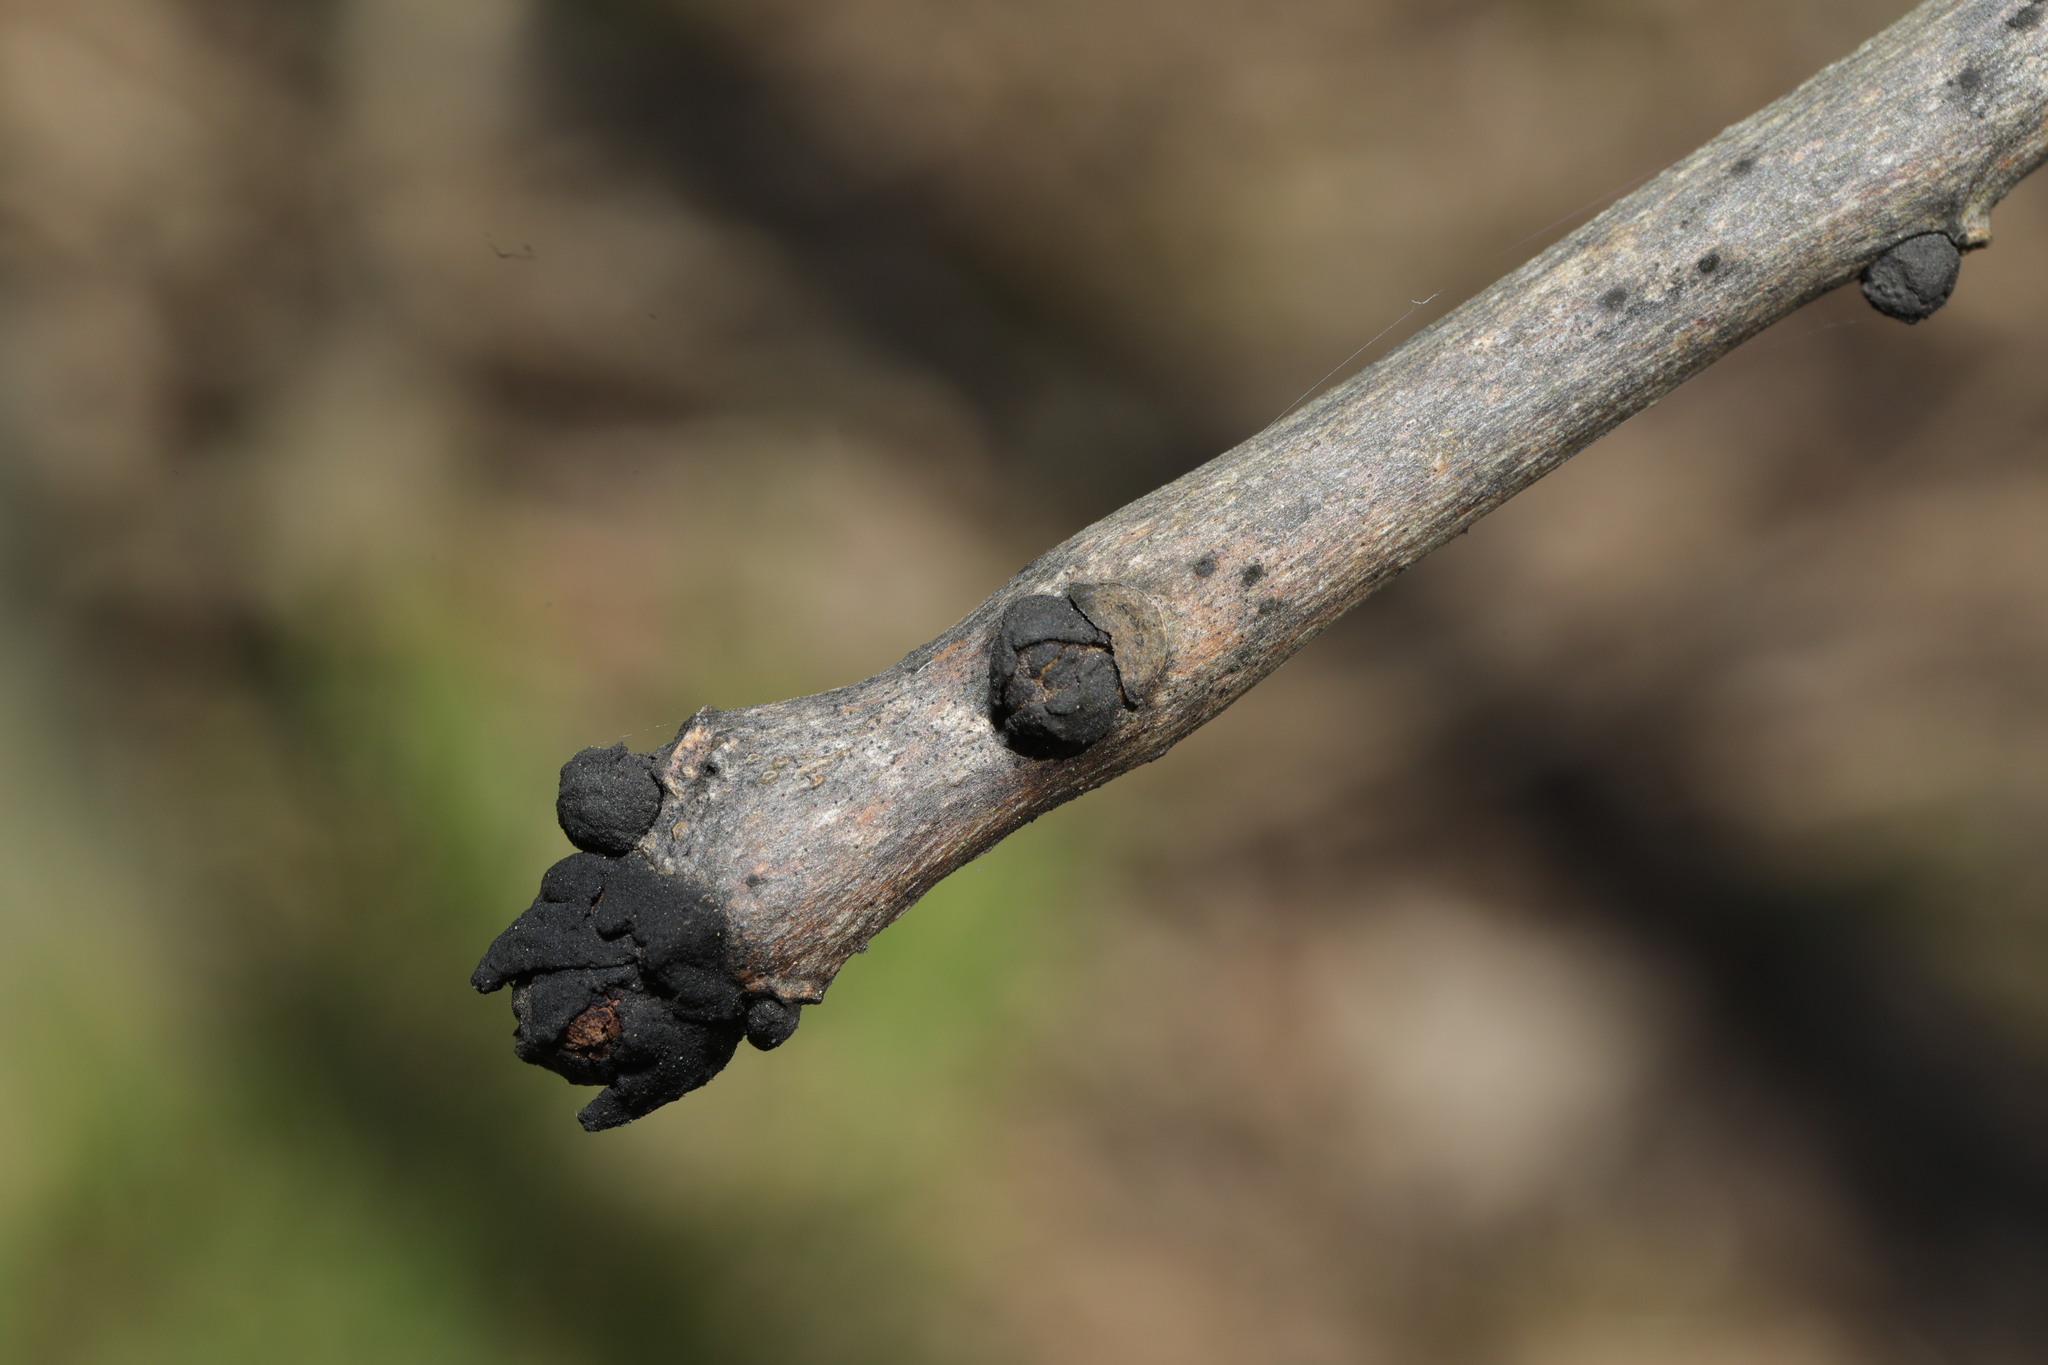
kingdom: Plantae
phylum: Tracheophyta
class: Magnoliopsida
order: Lamiales
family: Oleaceae
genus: Fraxinus
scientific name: Fraxinus excelsior
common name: European ash
